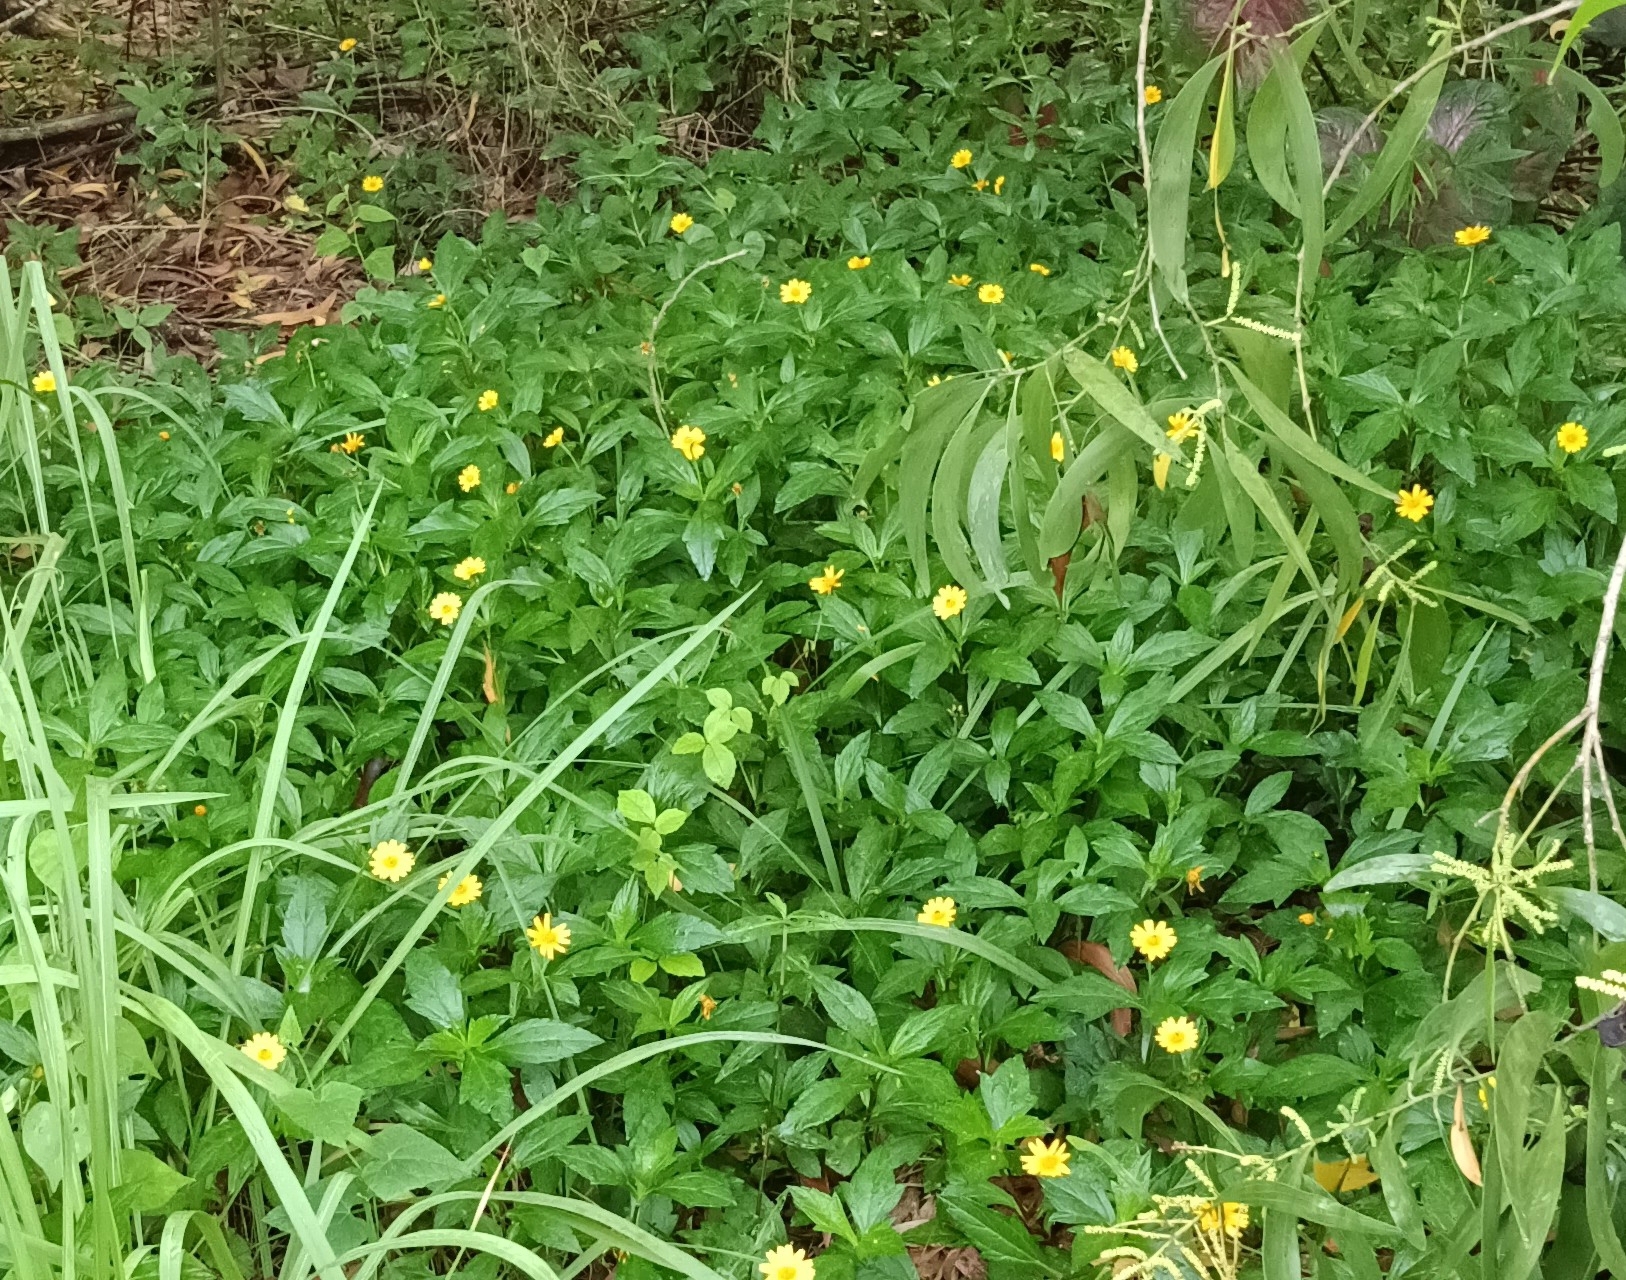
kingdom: Plantae
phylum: Tracheophyta
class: Magnoliopsida
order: Asterales
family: Asteraceae
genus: Sphagneticola
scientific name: Sphagneticola trilobata
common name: Bay biscayne creeping-oxeye
